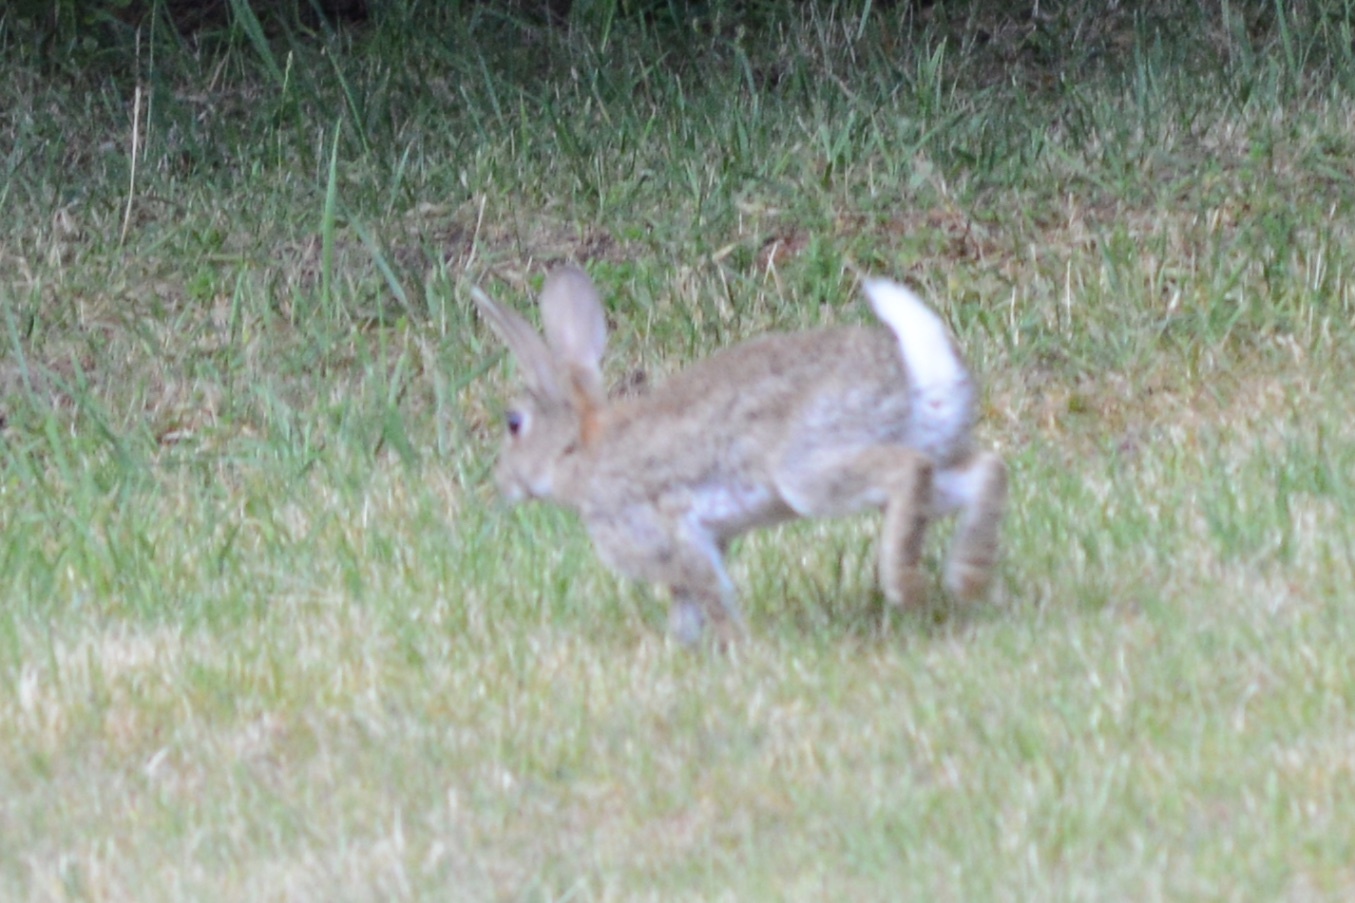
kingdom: Animalia
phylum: Chordata
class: Mammalia
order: Lagomorpha
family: Leporidae
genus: Oryctolagus
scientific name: Oryctolagus cuniculus
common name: European rabbit
